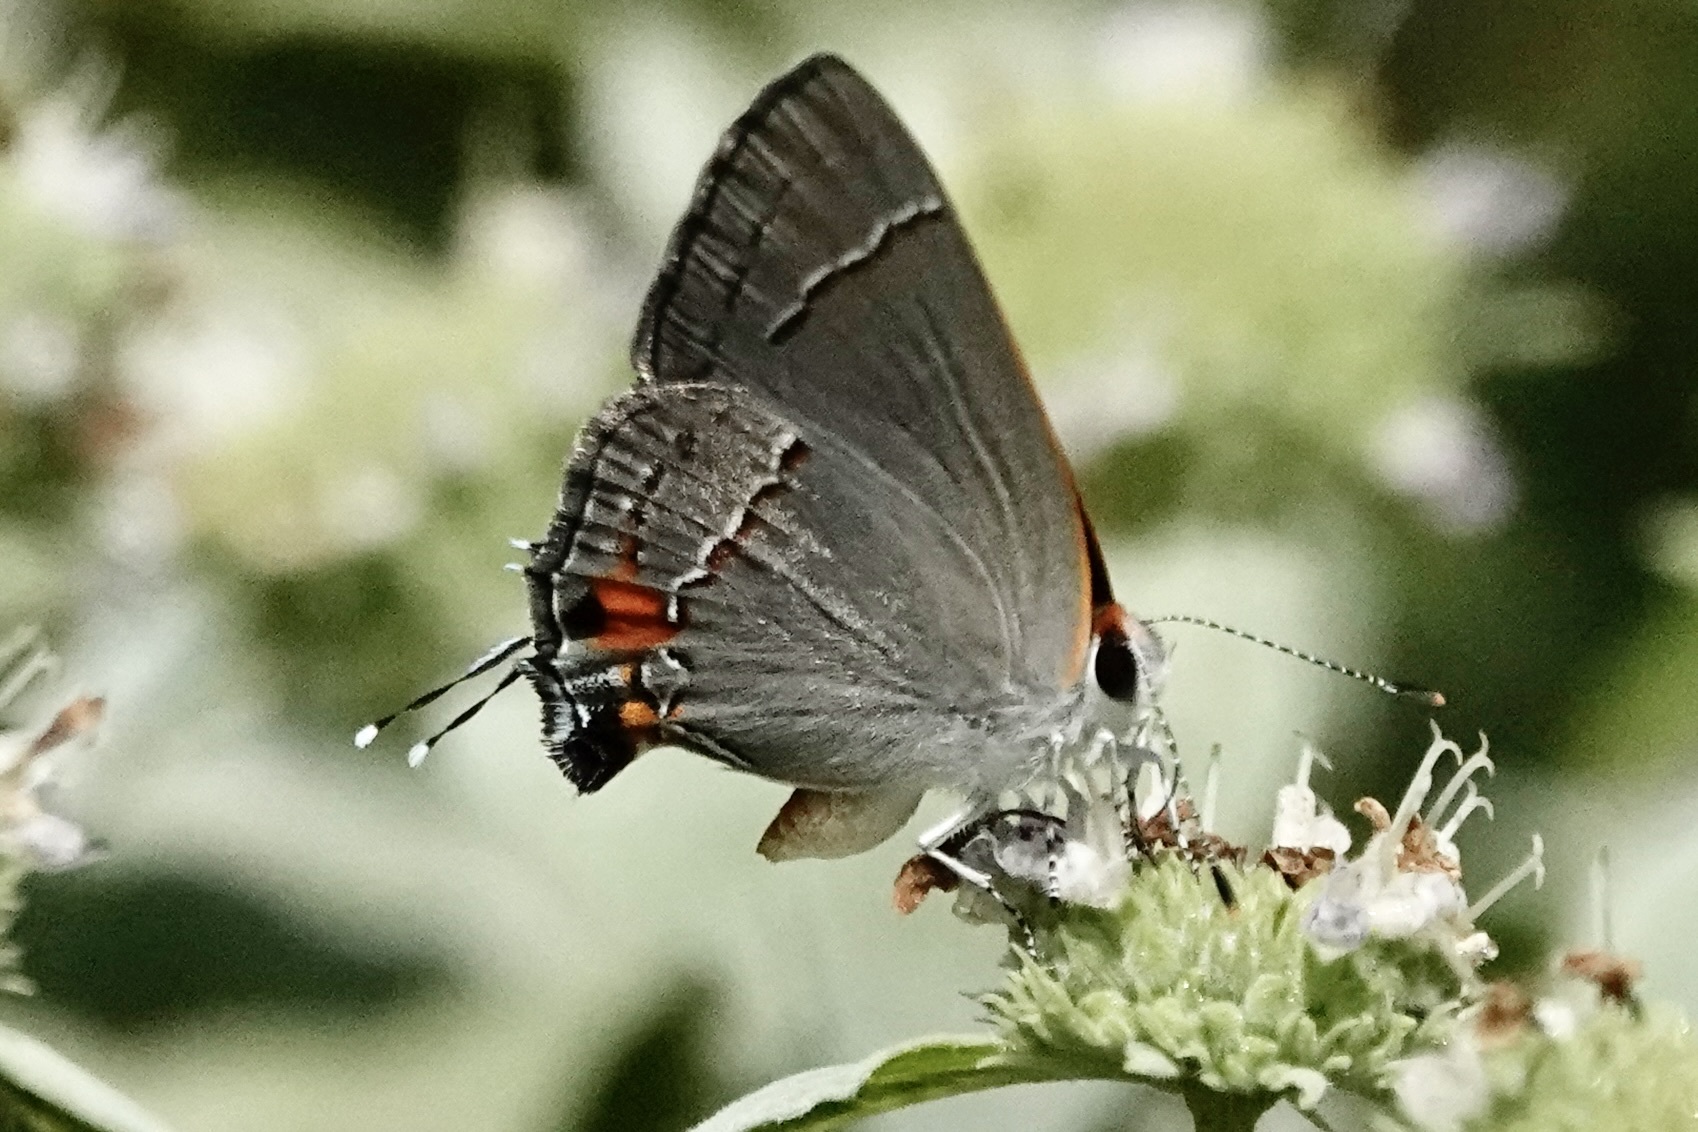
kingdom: Animalia
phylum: Arthropoda
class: Insecta
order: Lepidoptera
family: Lycaenidae
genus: Strymon
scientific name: Strymon melinus
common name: Gray hairstreak
